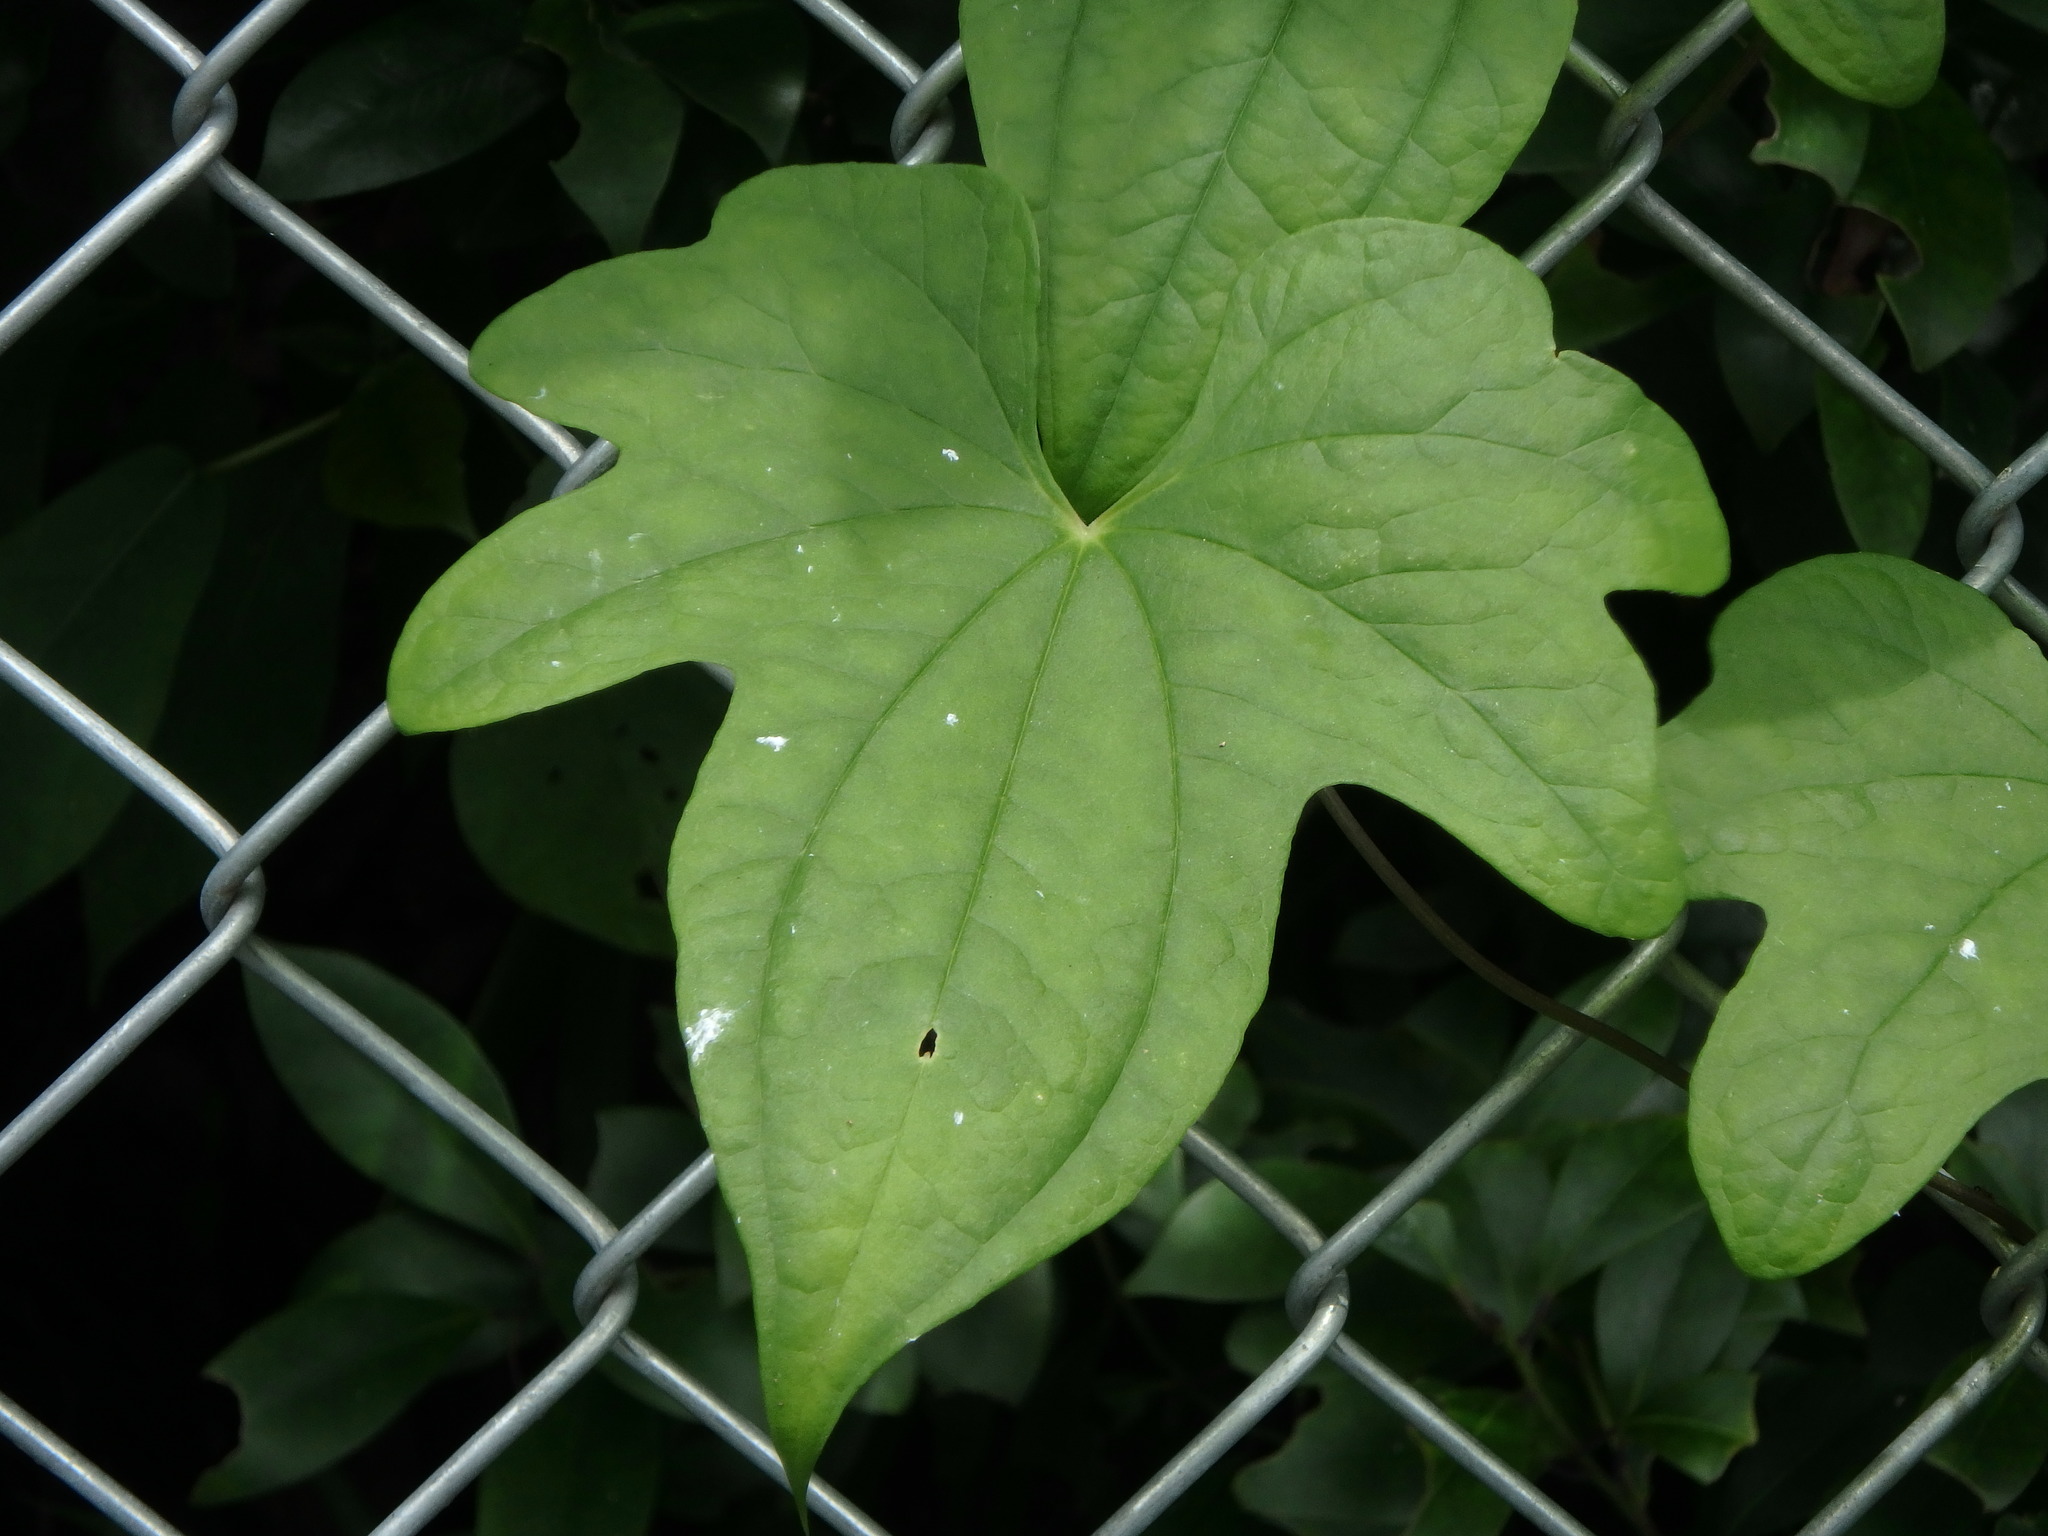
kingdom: Plantae
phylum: Tracheophyta
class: Liliopsida
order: Dioscoreales
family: Dioscoreaceae
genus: Dioscorea
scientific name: Dioscorea quinquelobata
